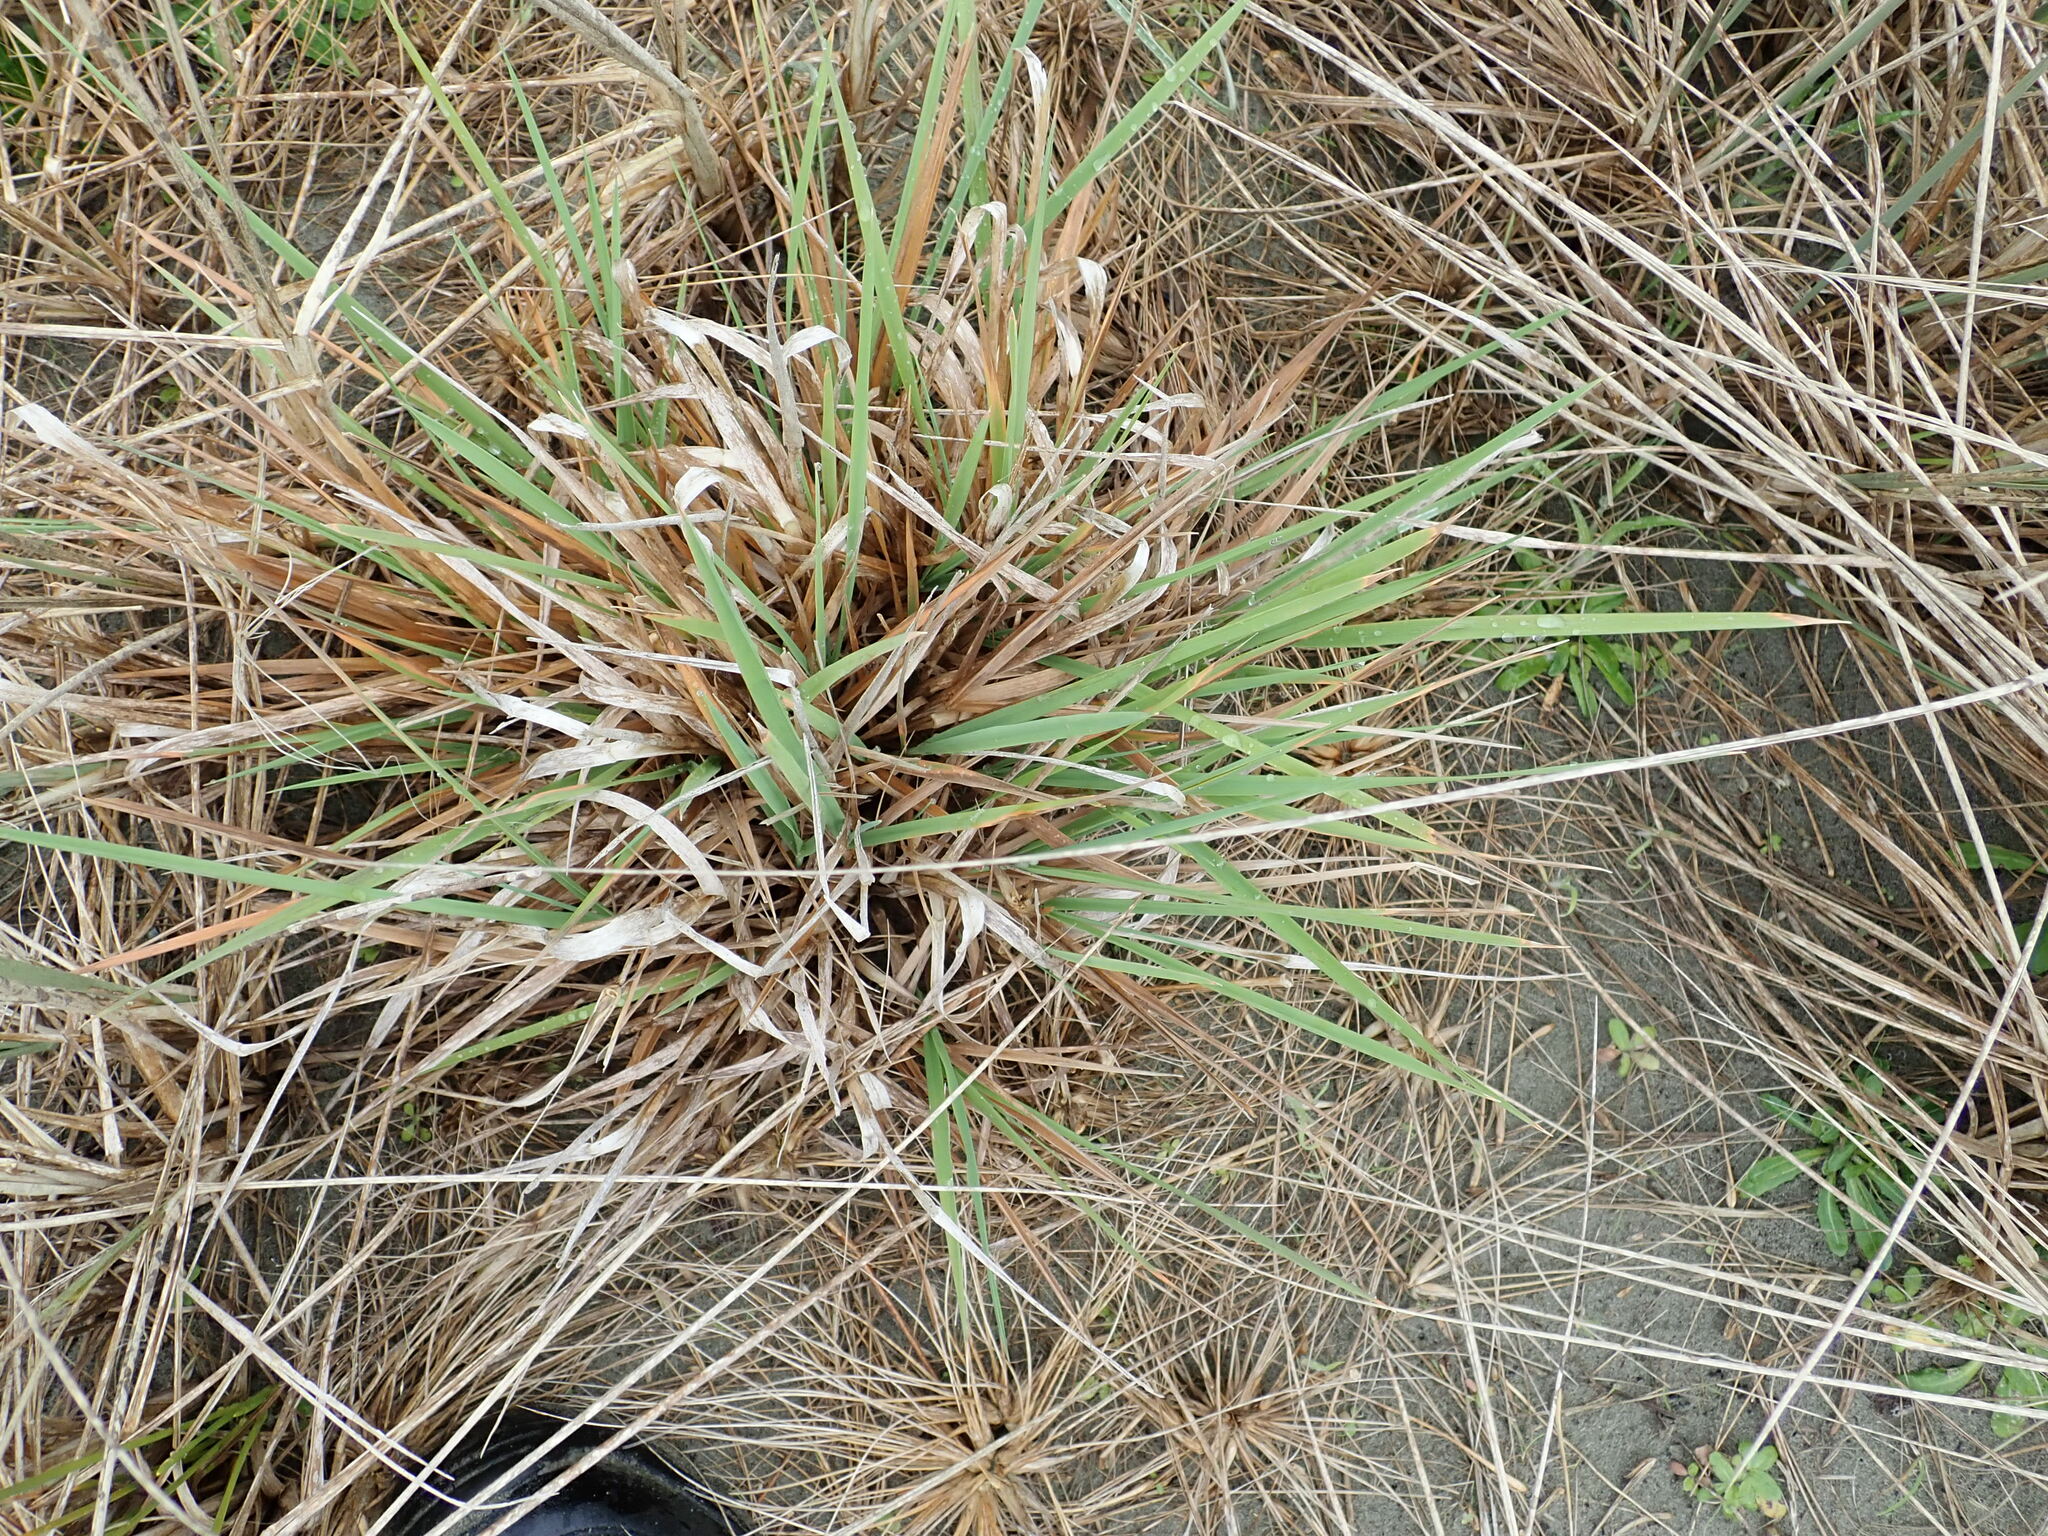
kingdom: Plantae
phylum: Tracheophyta
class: Liliopsida
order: Poales
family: Poaceae
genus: Lachnagrostis
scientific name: Lachnagrostis billardierei
